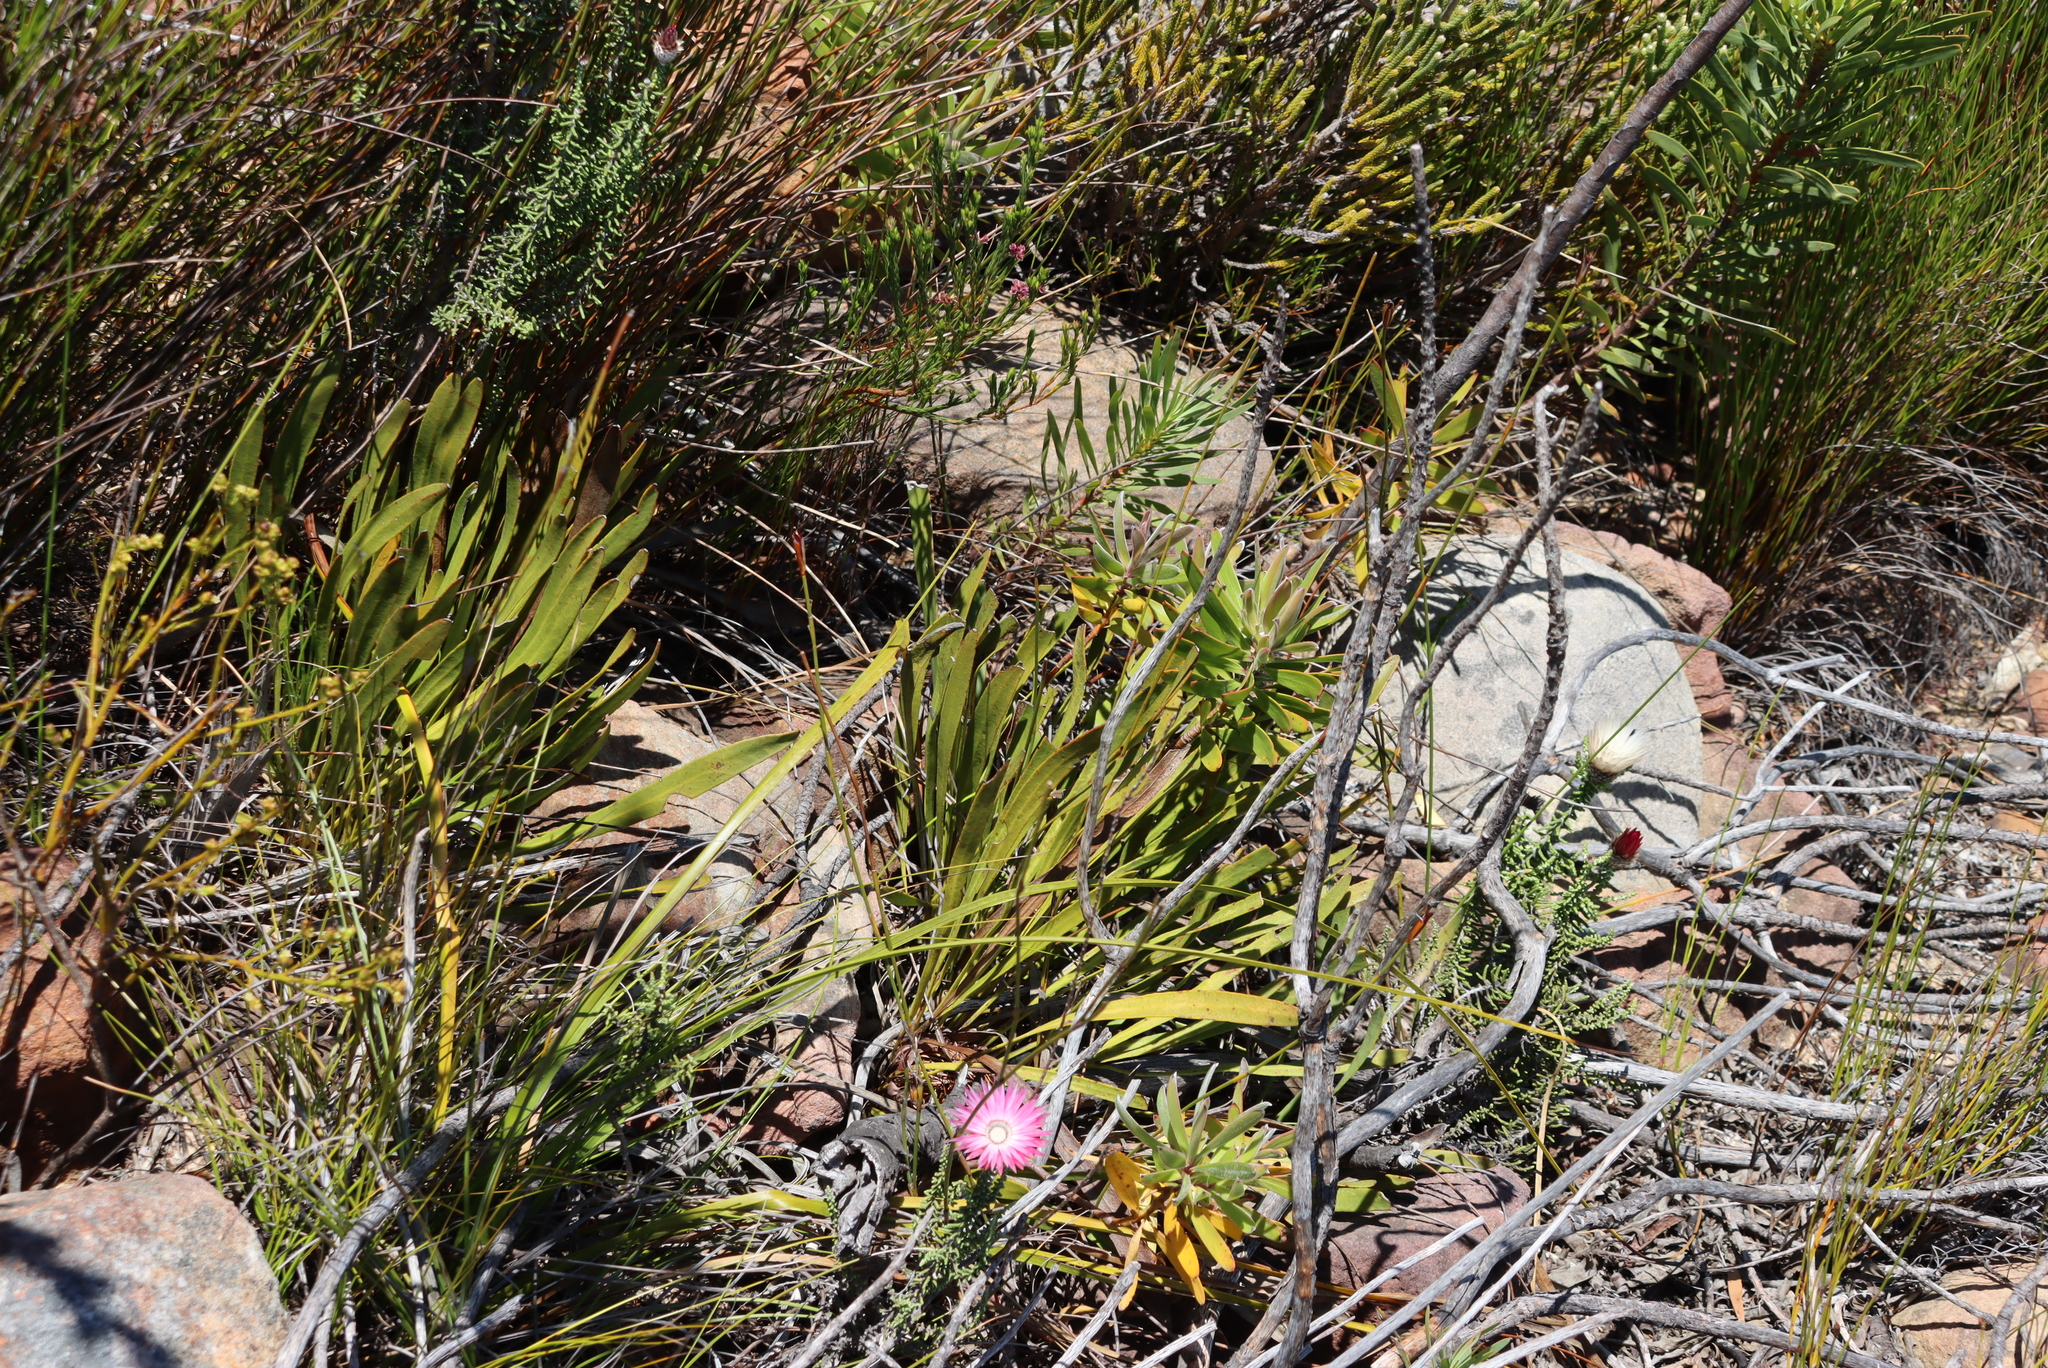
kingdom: Plantae
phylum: Tracheophyta
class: Magnoliopsida
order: Proteales
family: Proteaceae
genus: Protea
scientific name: Protea scabra
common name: Sandpaper-leaf sugarbush
